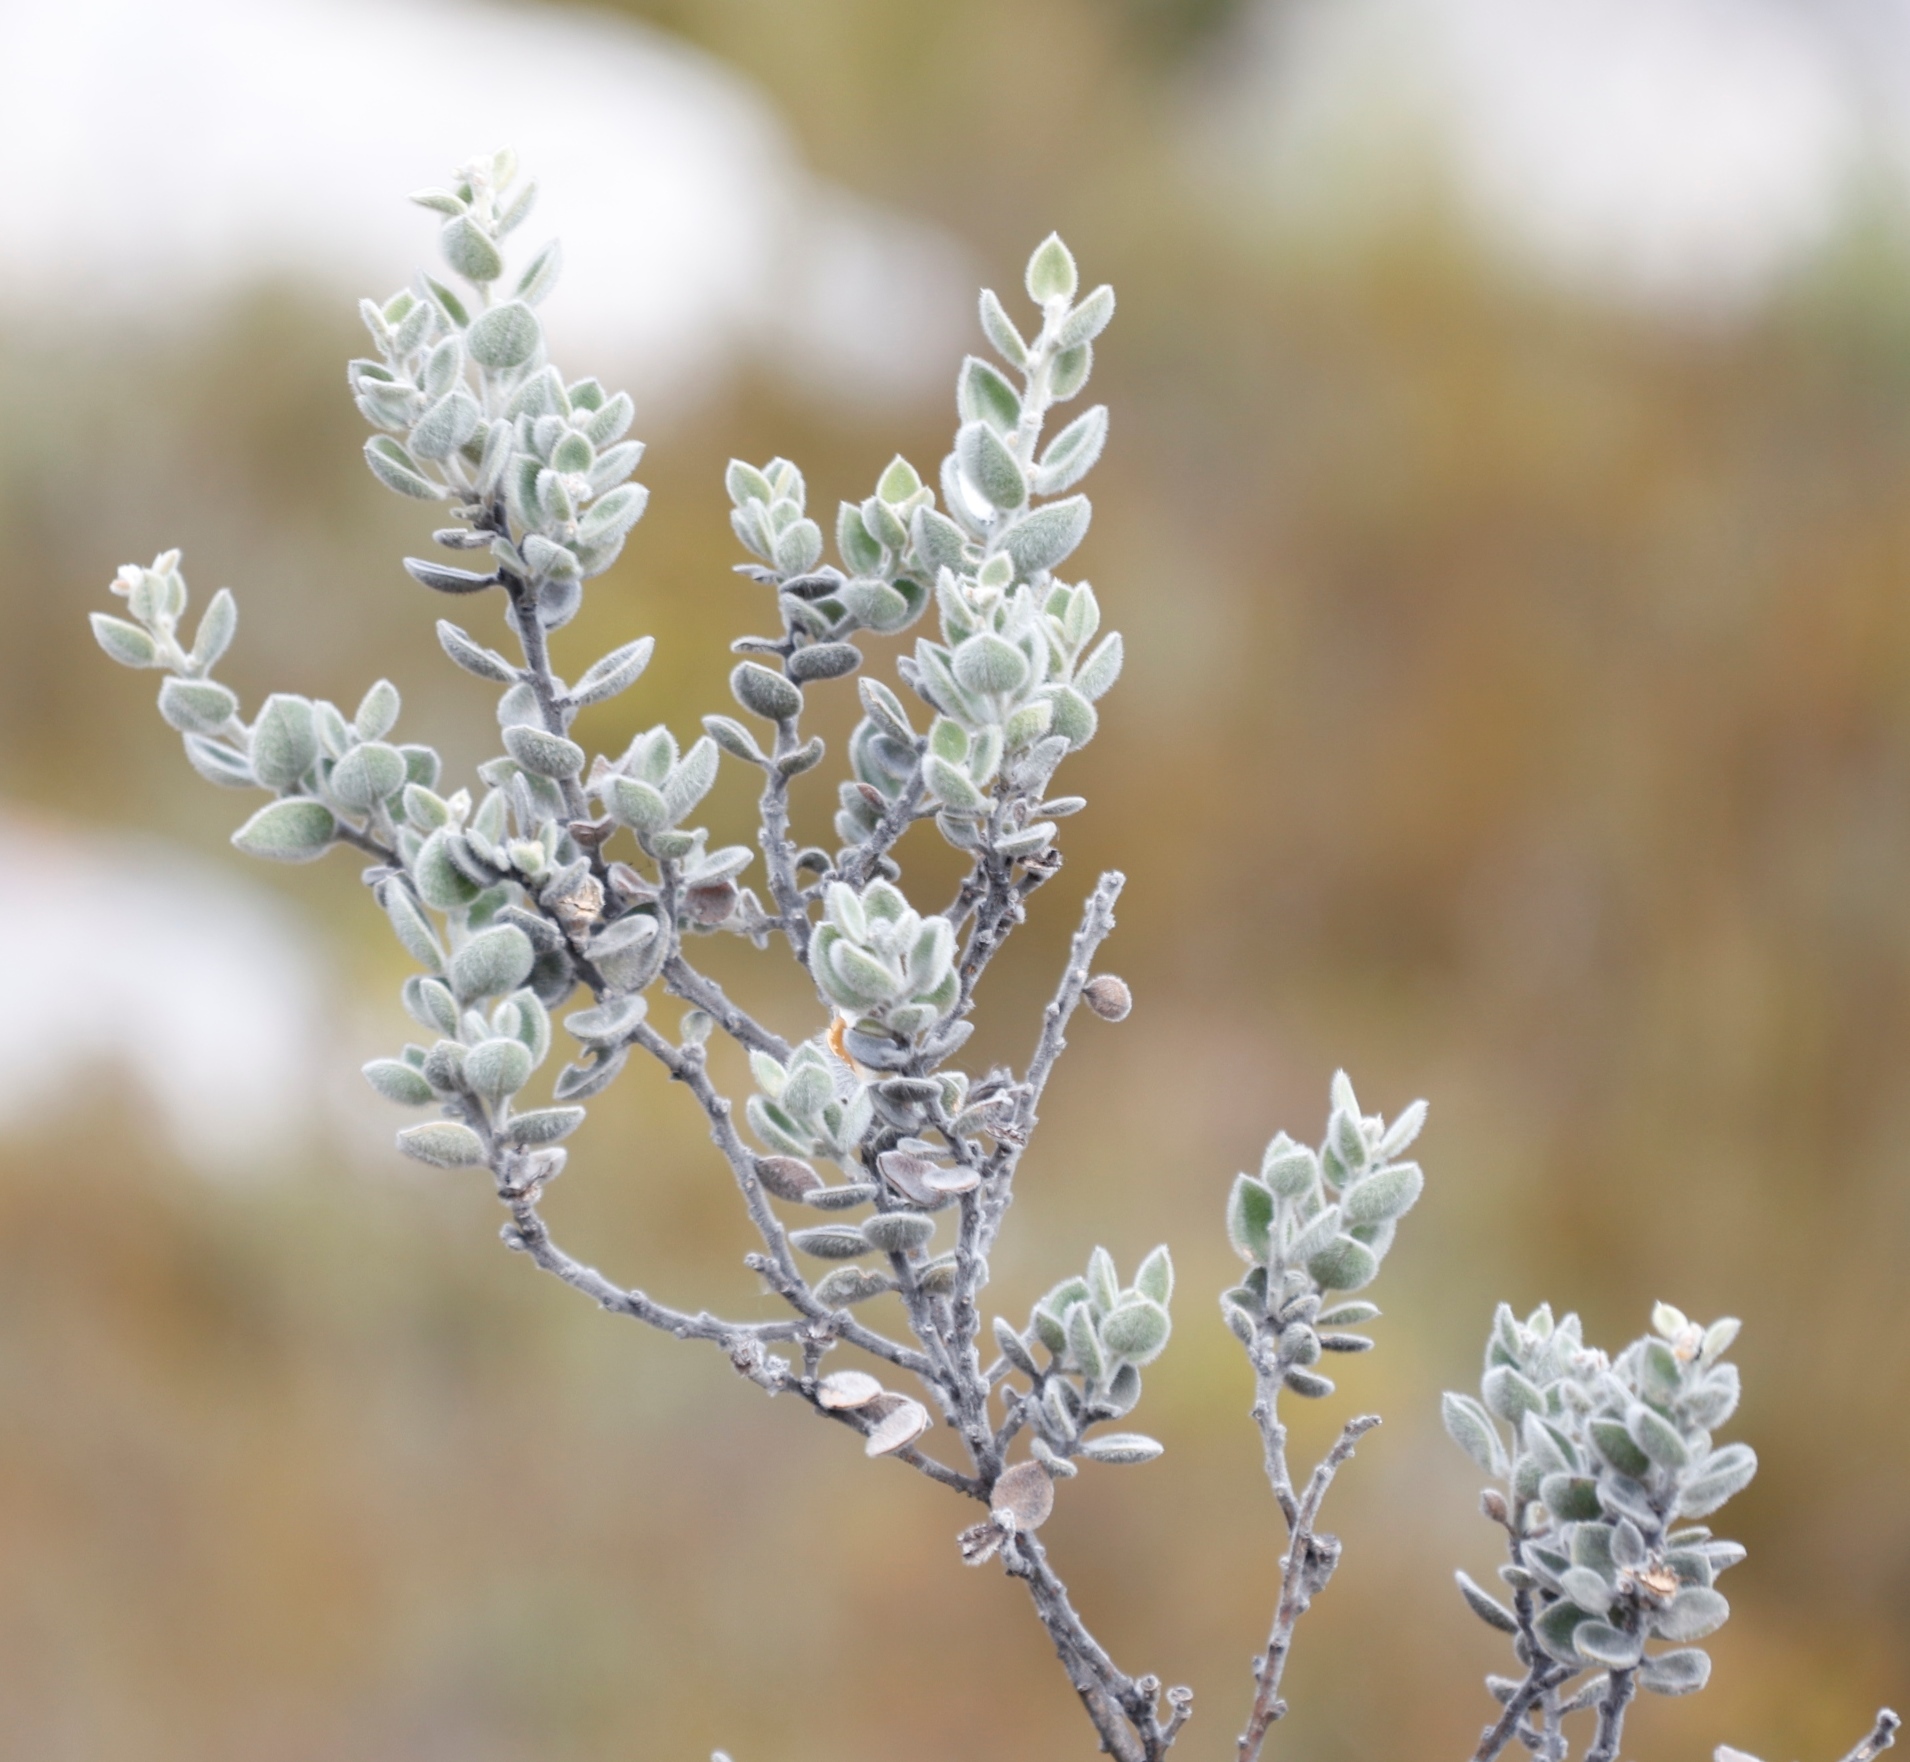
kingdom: Plantae
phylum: Tracheophyta
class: Magnoliopsida
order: Fabales
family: Fabaceae
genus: Podalyria
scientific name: Podalyria hirsuta
